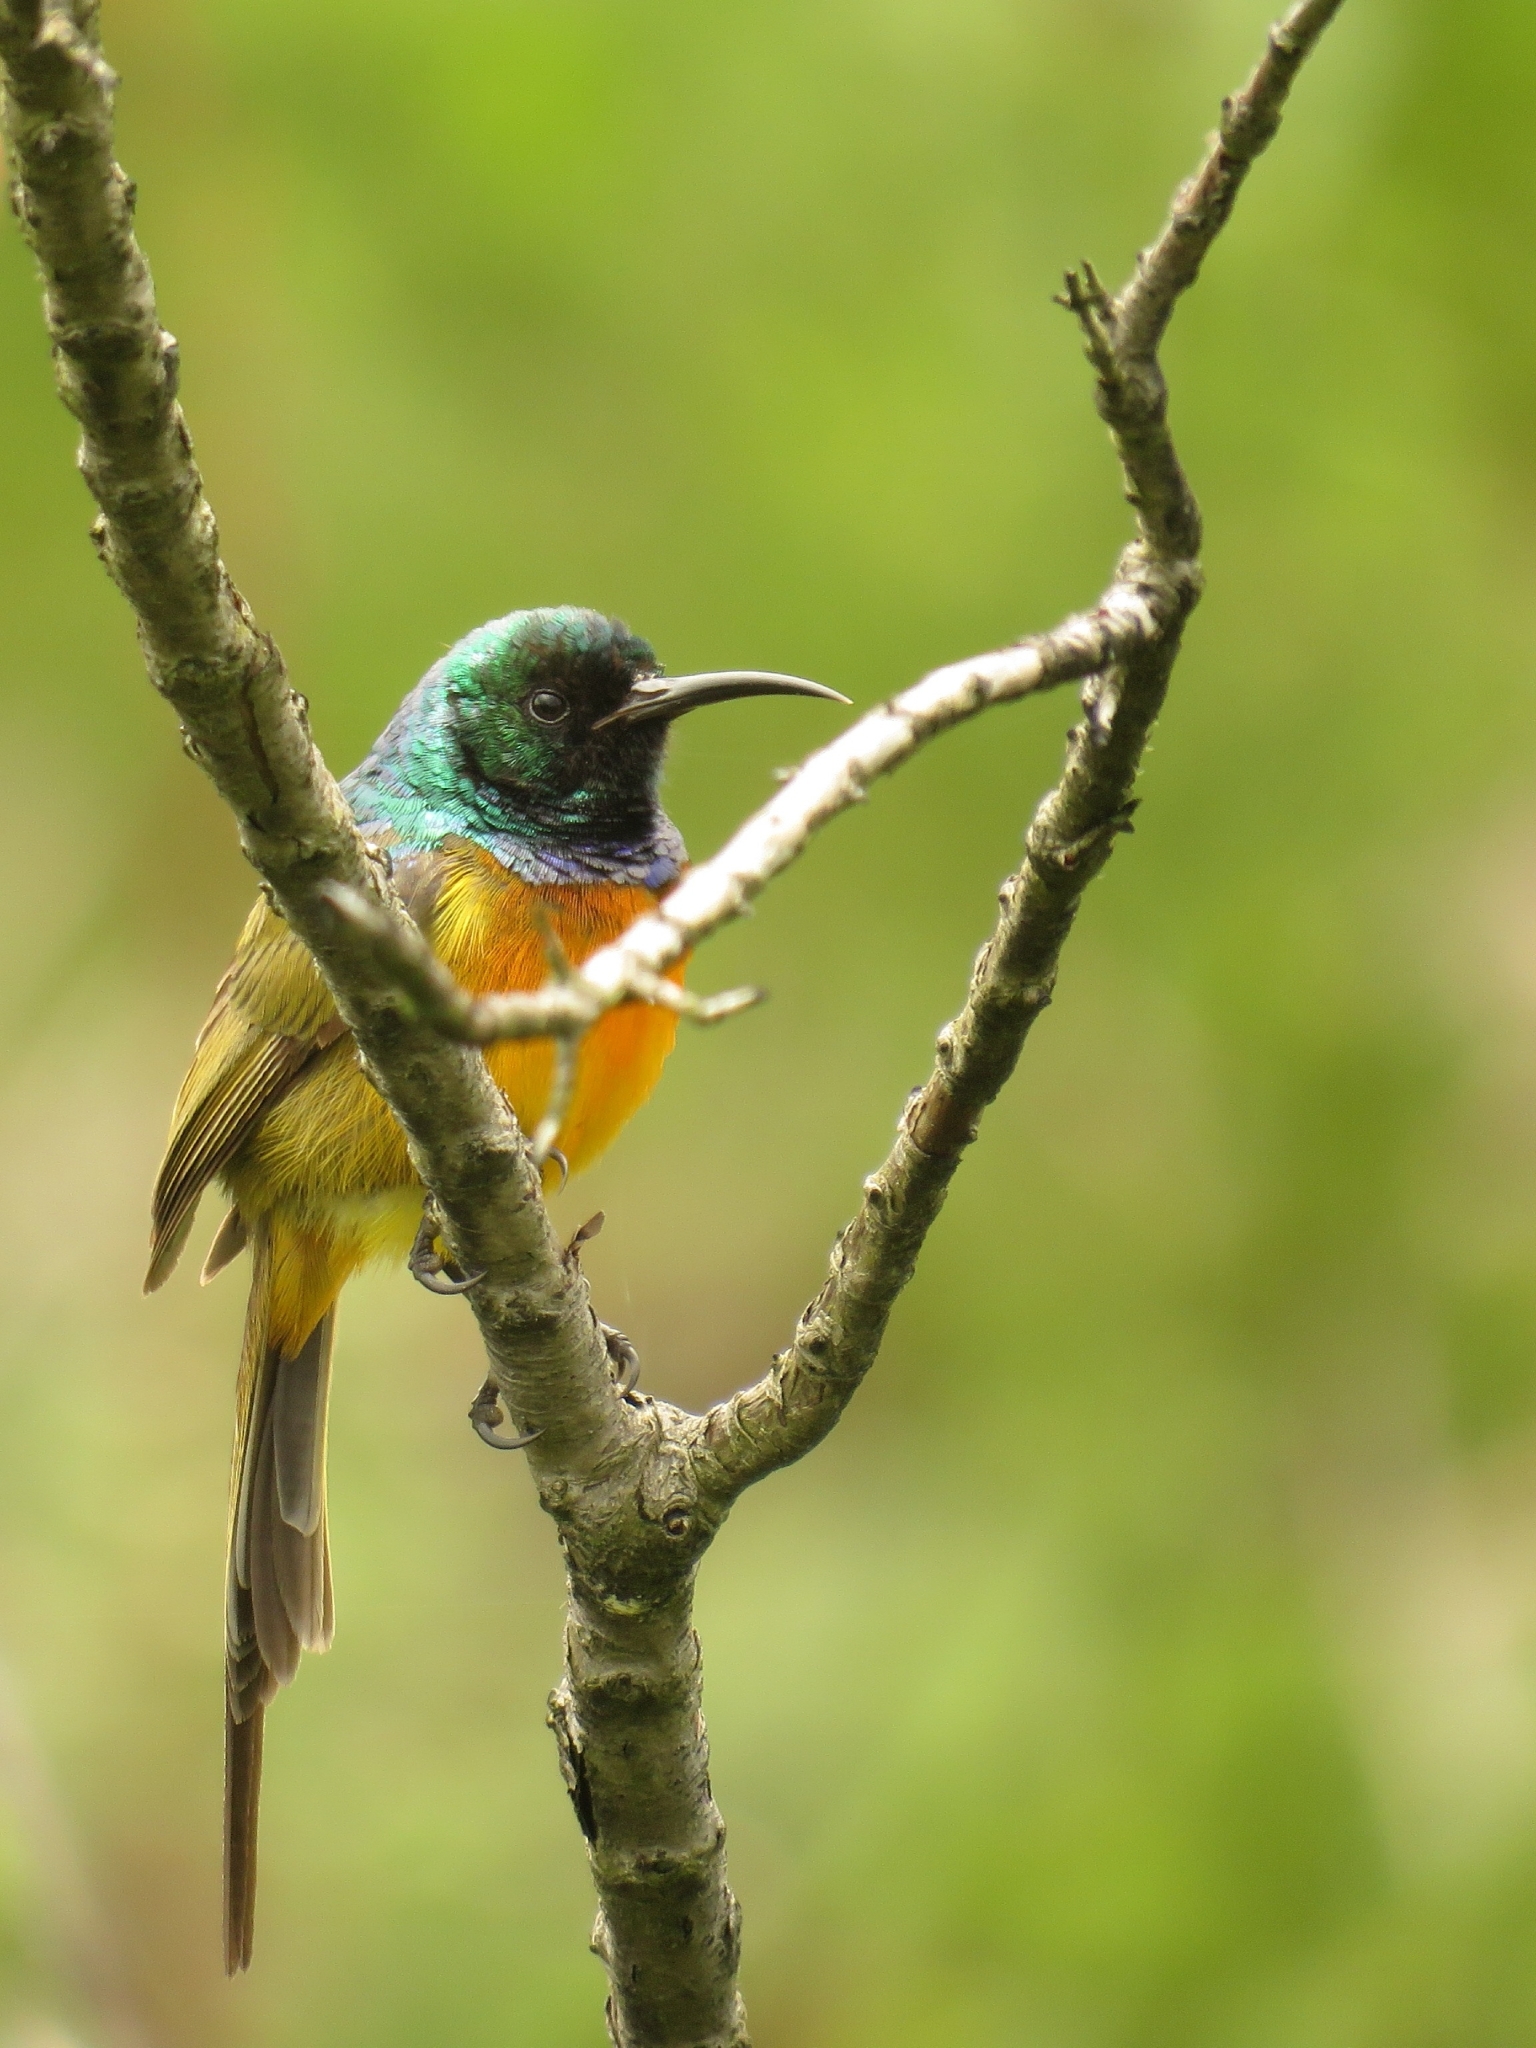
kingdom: Animalia
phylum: Chordata
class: Aves
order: Passeriformes
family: Nectariniidae
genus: Anthobaphes
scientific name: Anthobaphes violacea
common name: Orange-breasted sunbird
